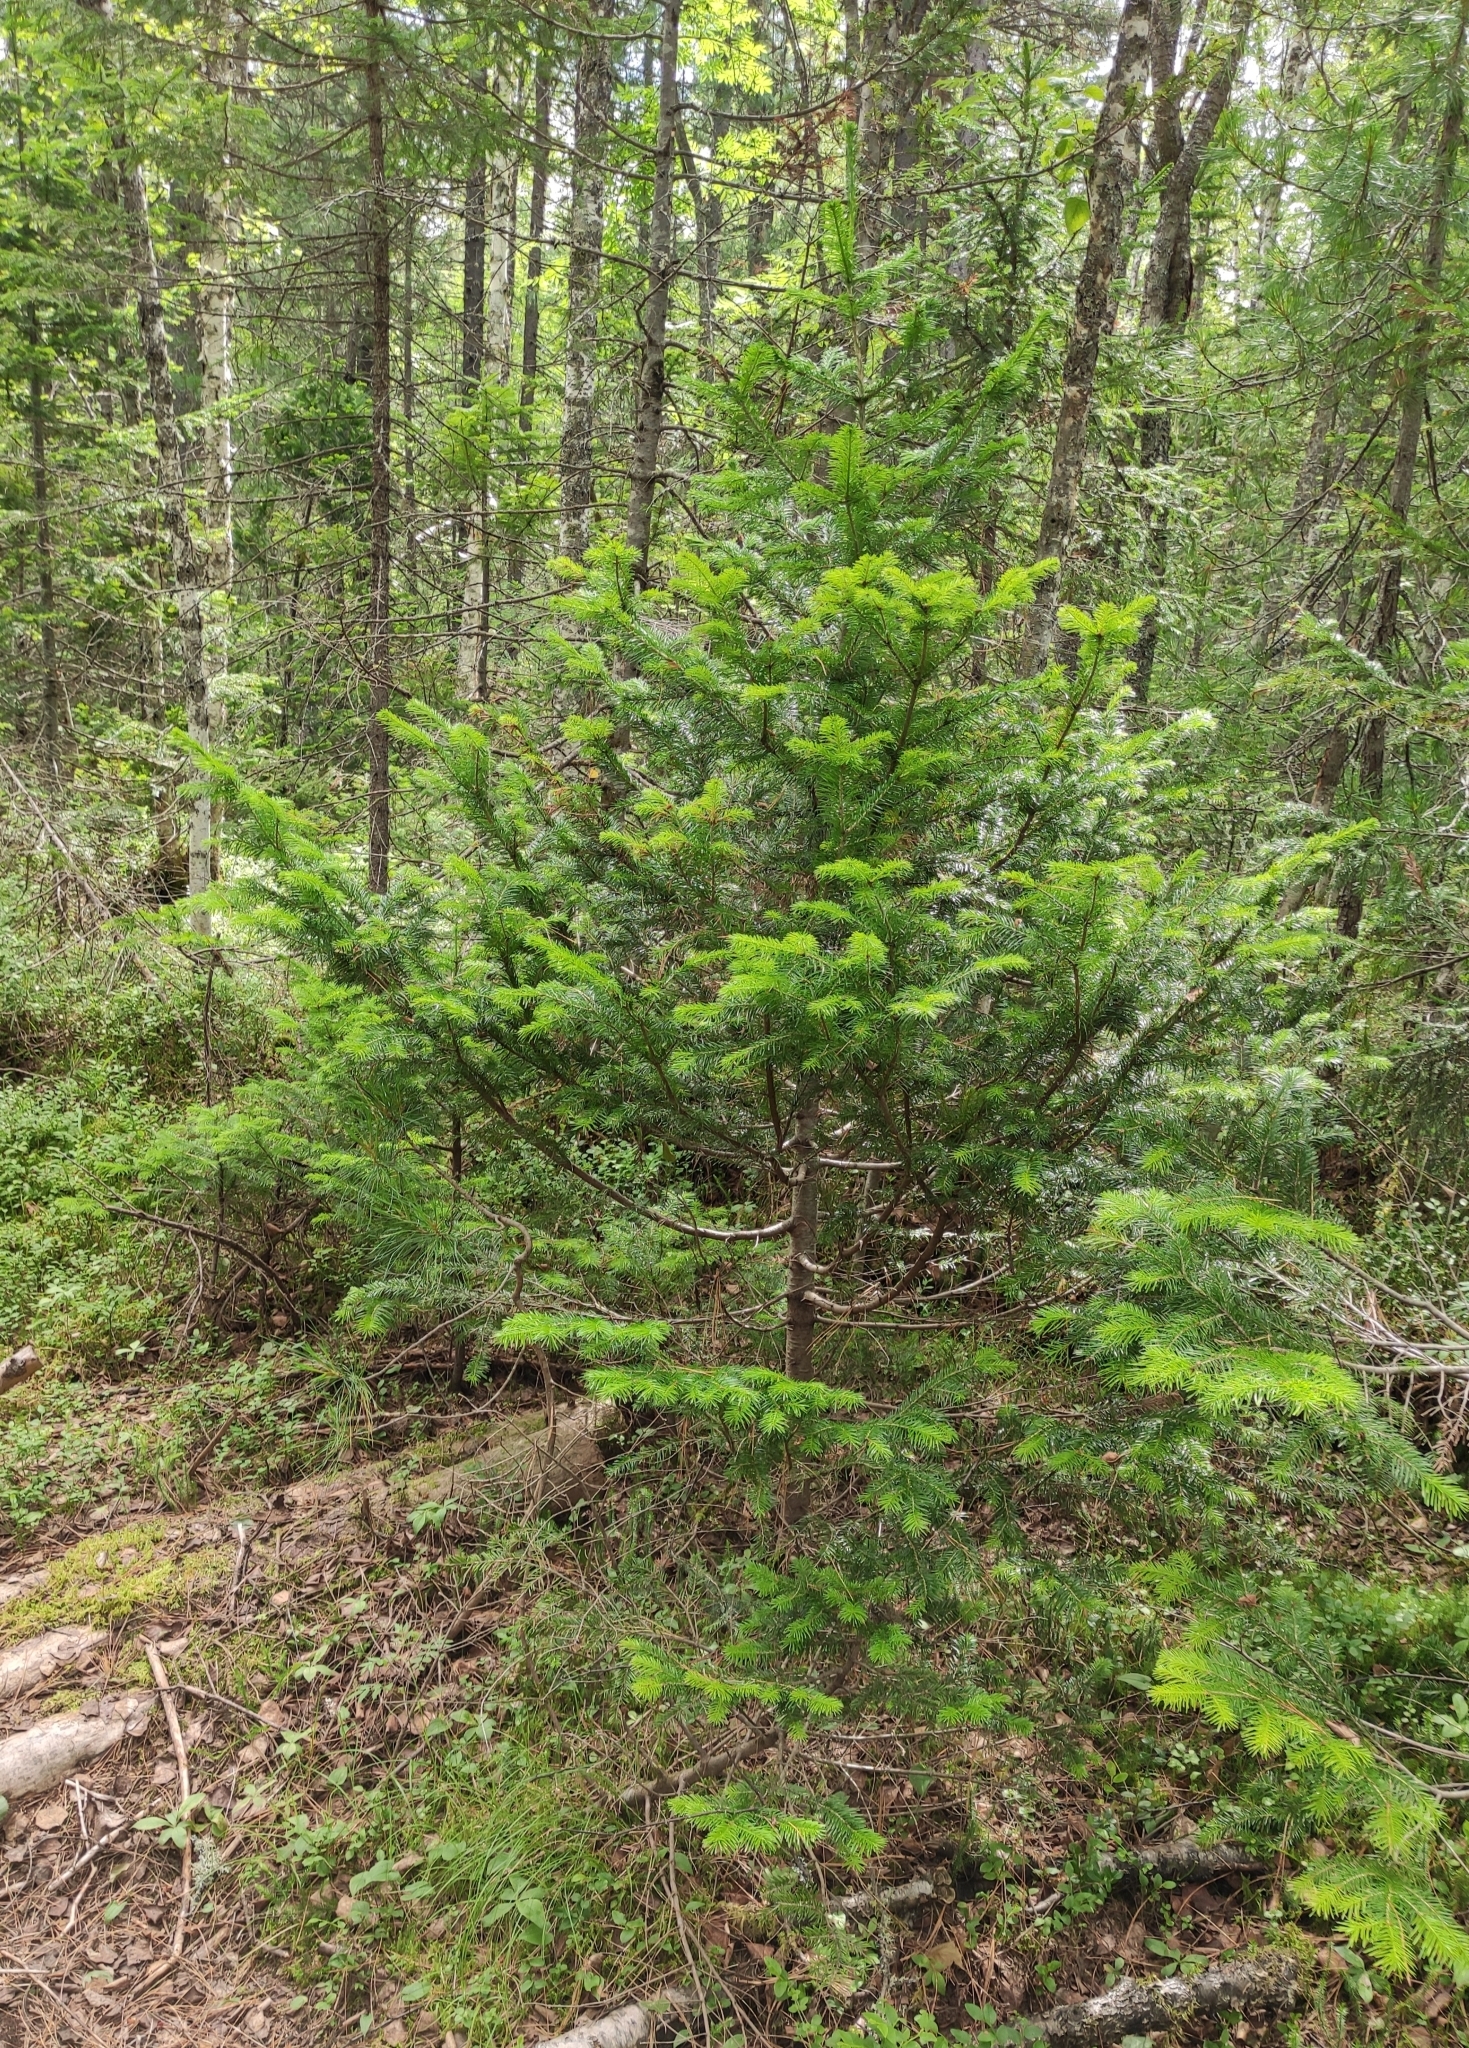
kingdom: Plantae
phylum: Tracheophyta
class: Pinopsida
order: Pinales
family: Pinaceae
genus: Abies
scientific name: Abies sibirica
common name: Siberian fir
